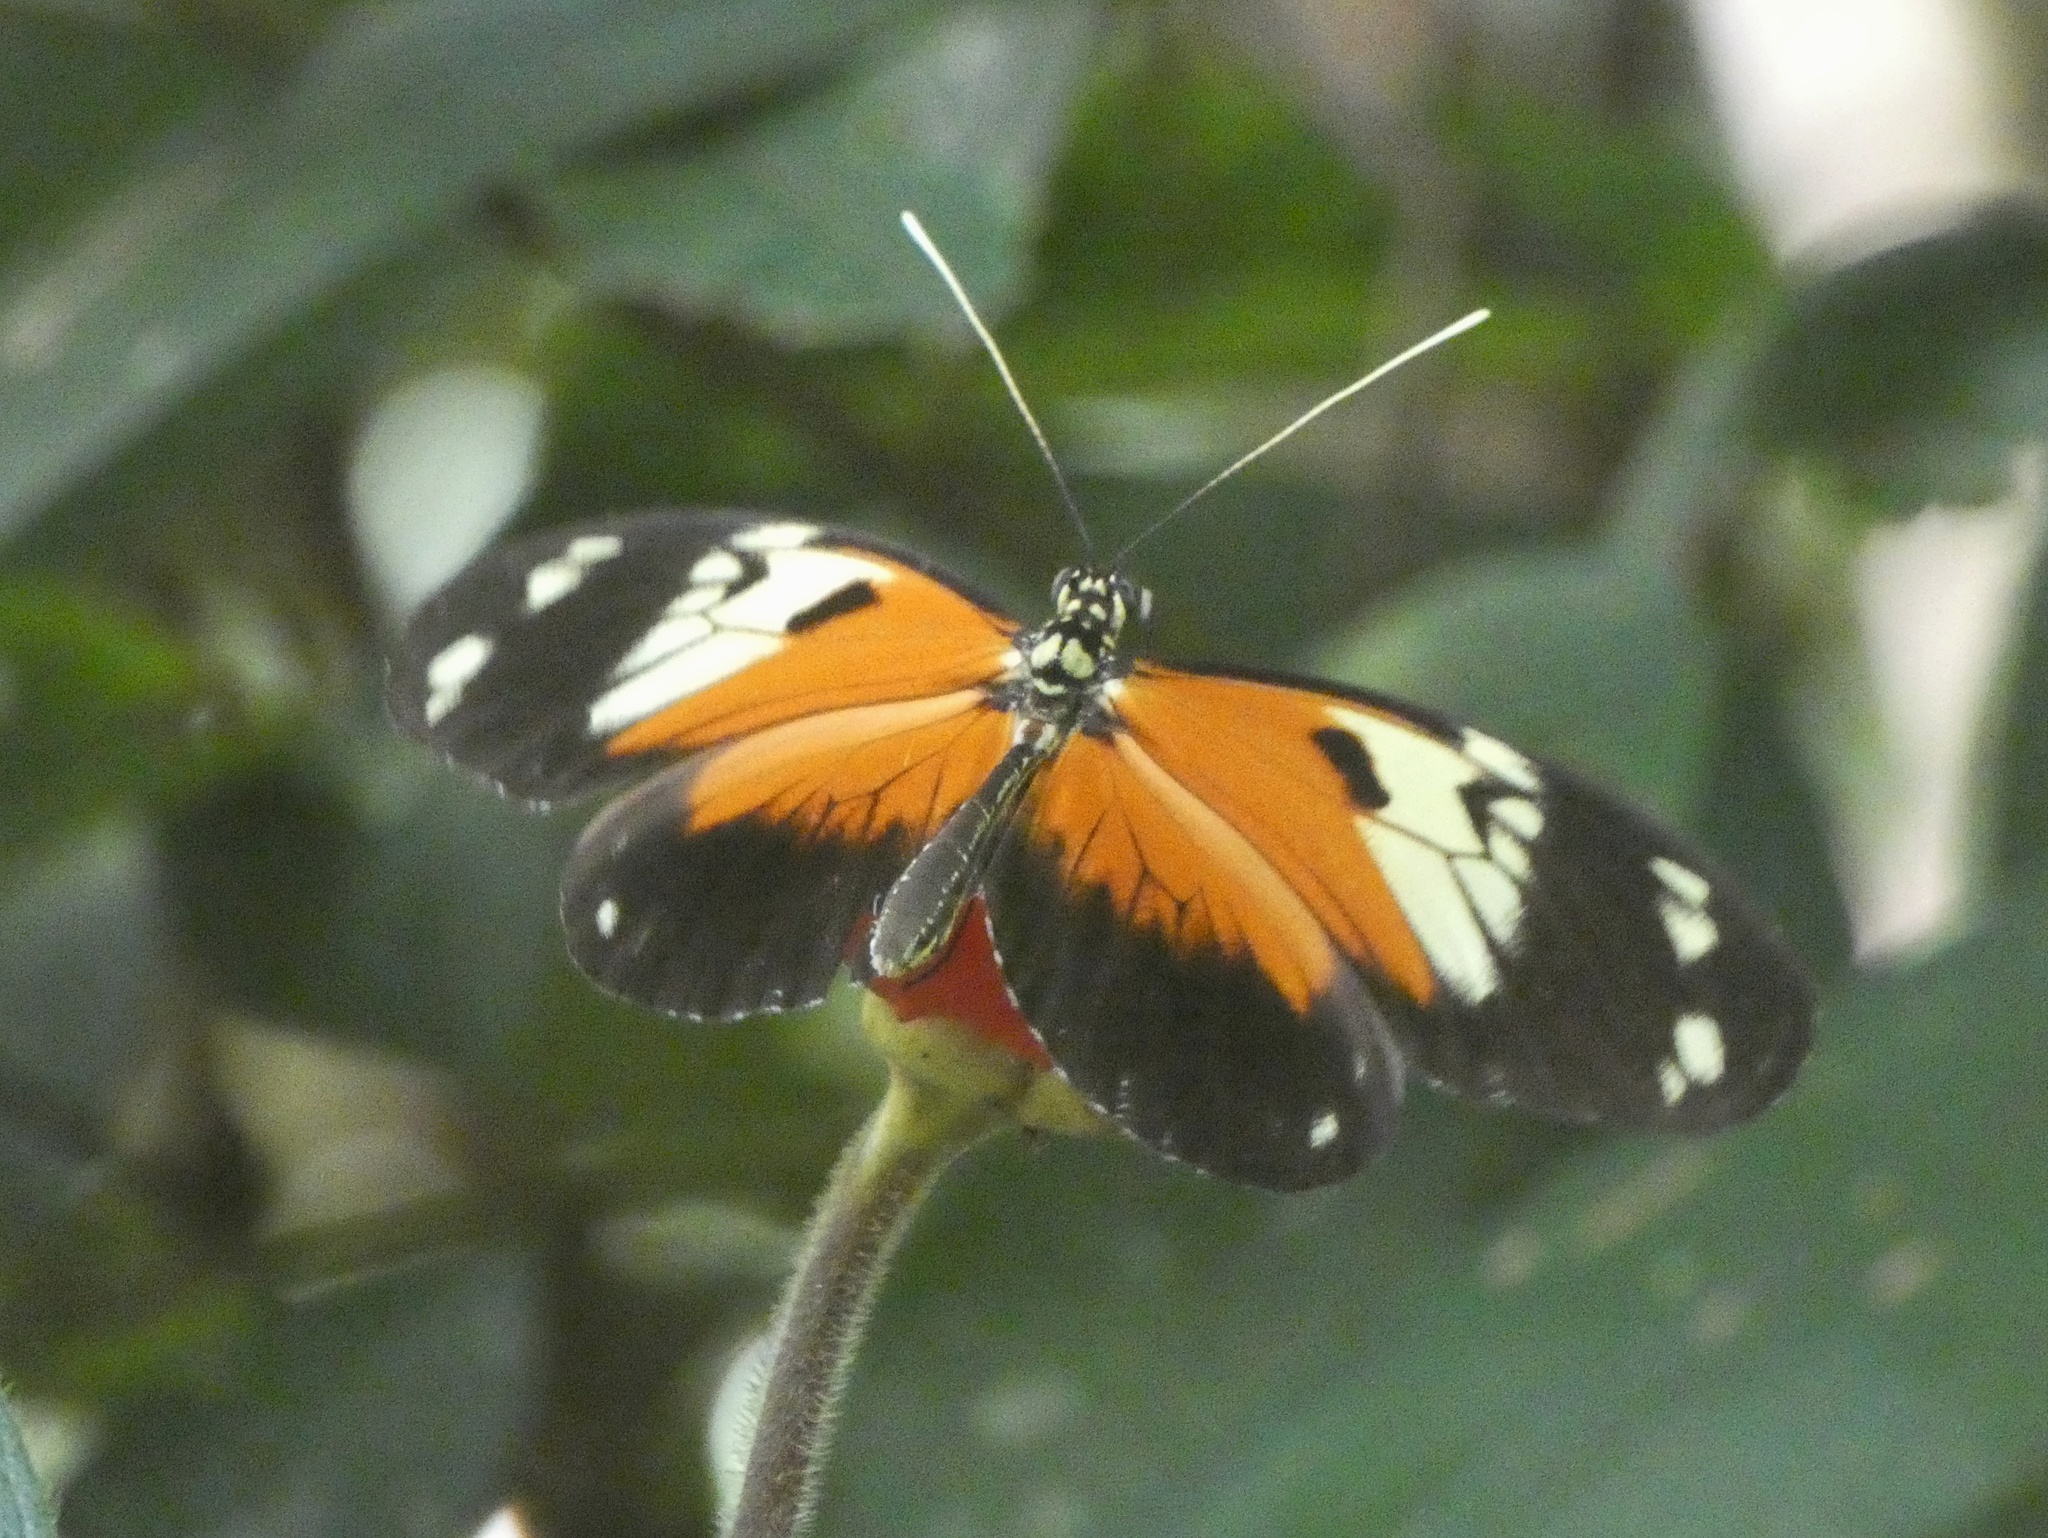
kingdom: Animalia
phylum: Arthropoda
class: Insecta
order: Lepidoptera
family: Nymphalidae
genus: Heliconius
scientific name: Heliconius ismenius
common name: Ismenius tiger
